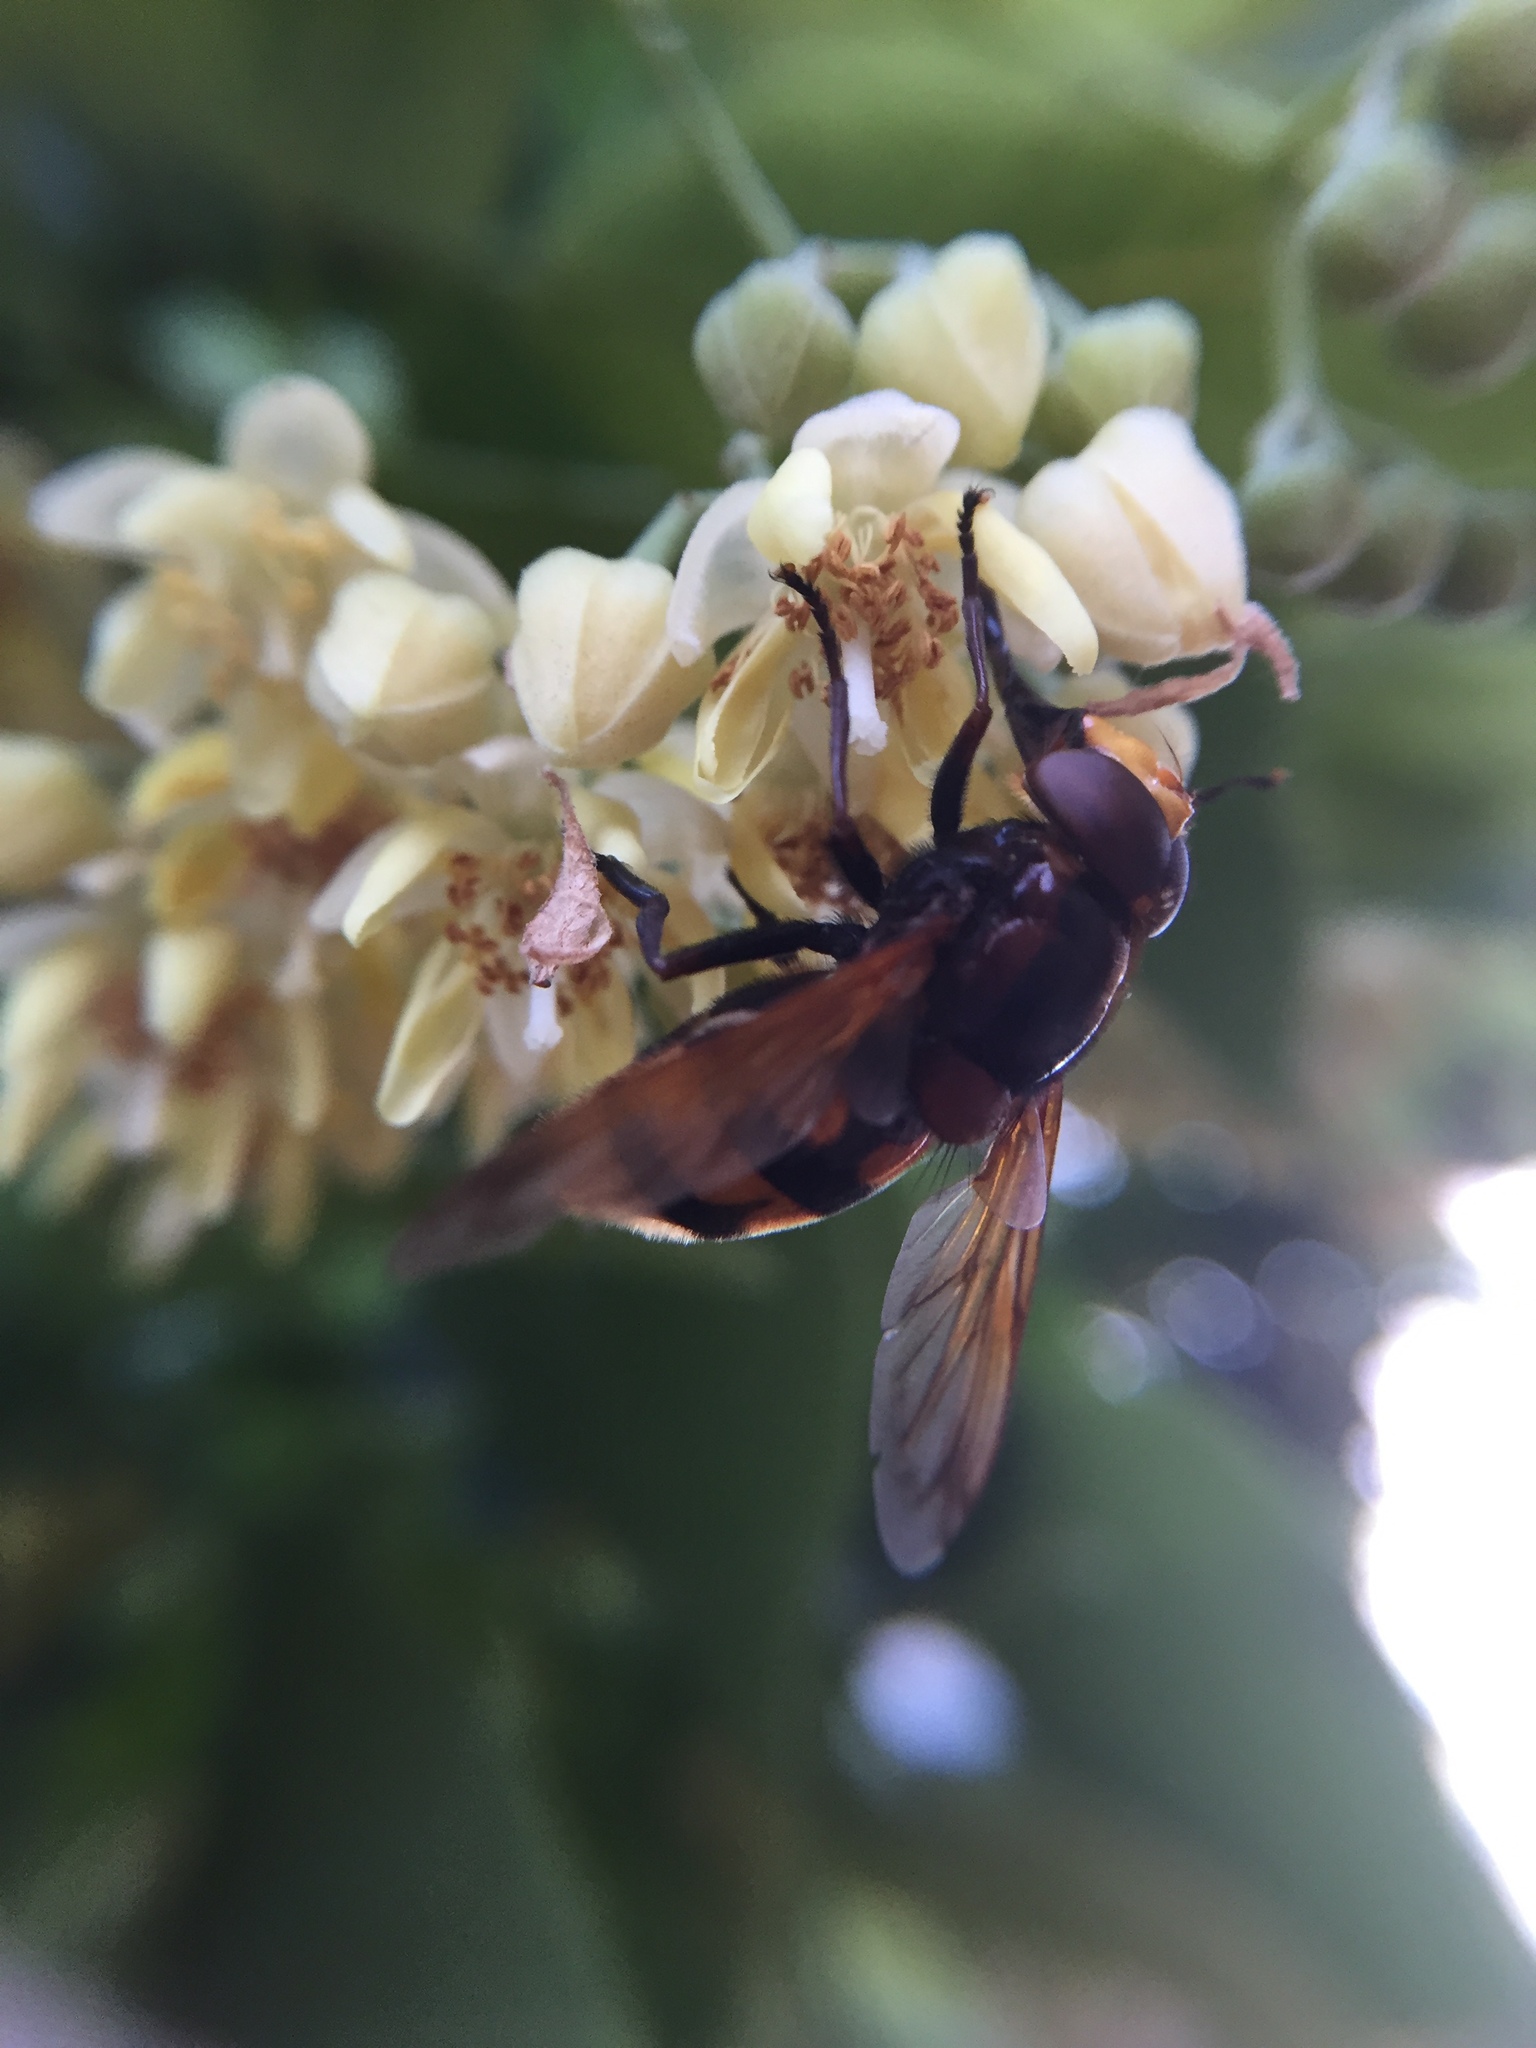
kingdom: Animalia
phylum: Arthropoda
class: Insecta
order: Diptera
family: Syrphidae
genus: Volucella
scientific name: Volucella zonaria
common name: Hornet hoverfly
